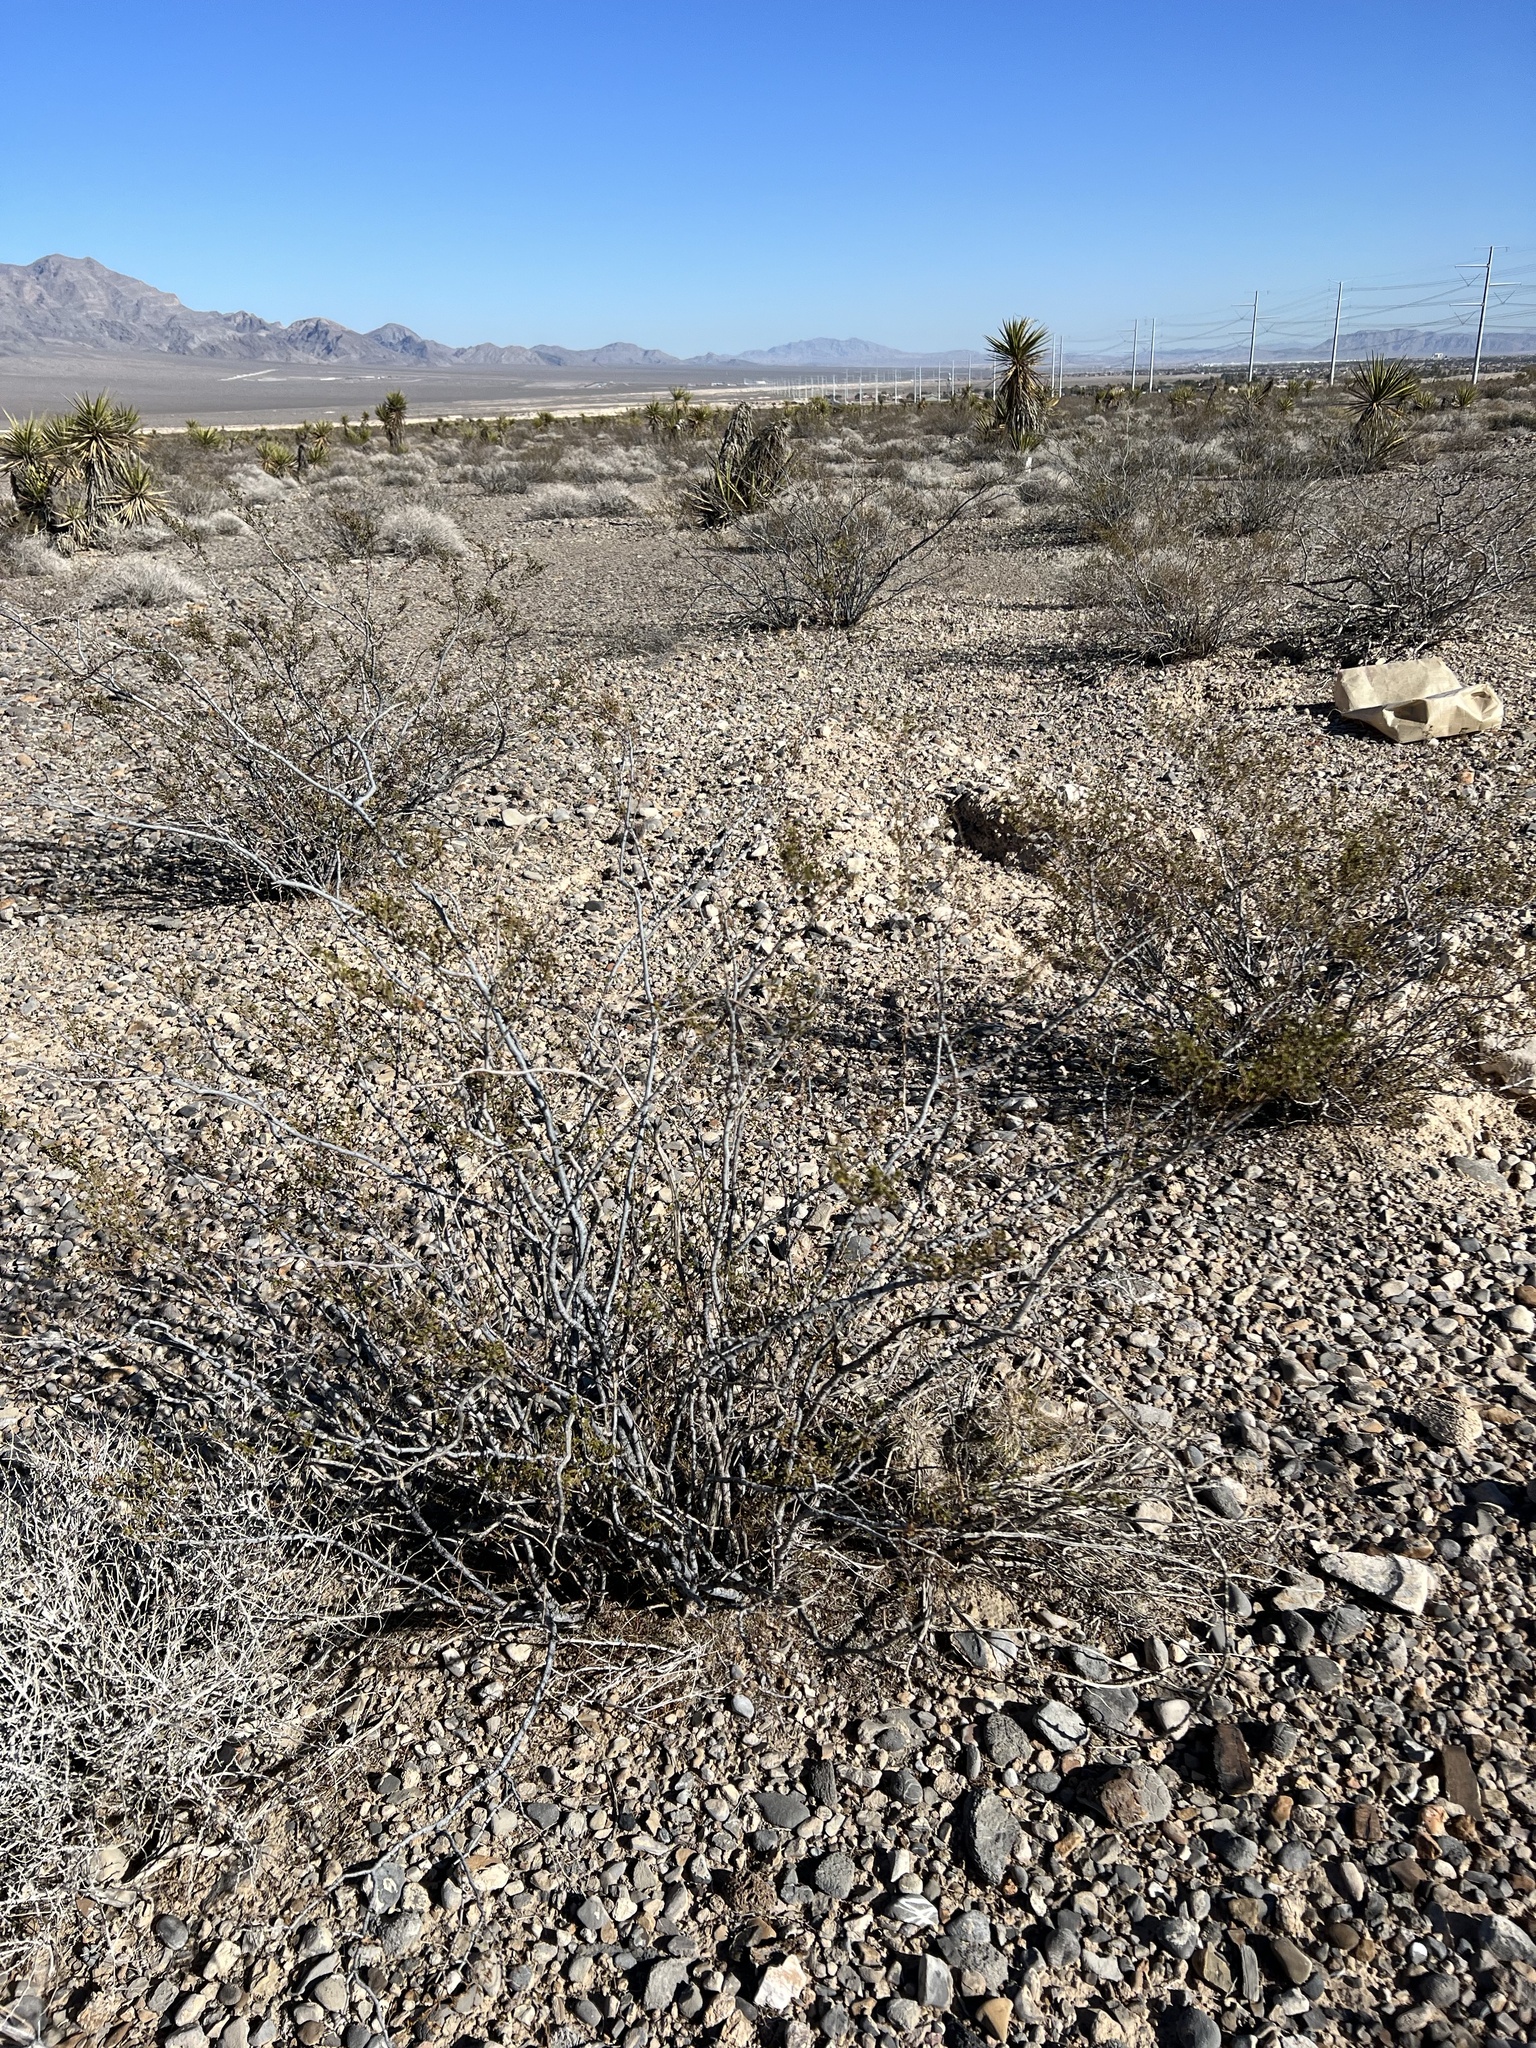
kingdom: Plantae
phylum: Tracheophyta
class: Magnoliopsida
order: Zygophyllales
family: Zygophyllaceae
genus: Larrea
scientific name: Larrea tridentata
